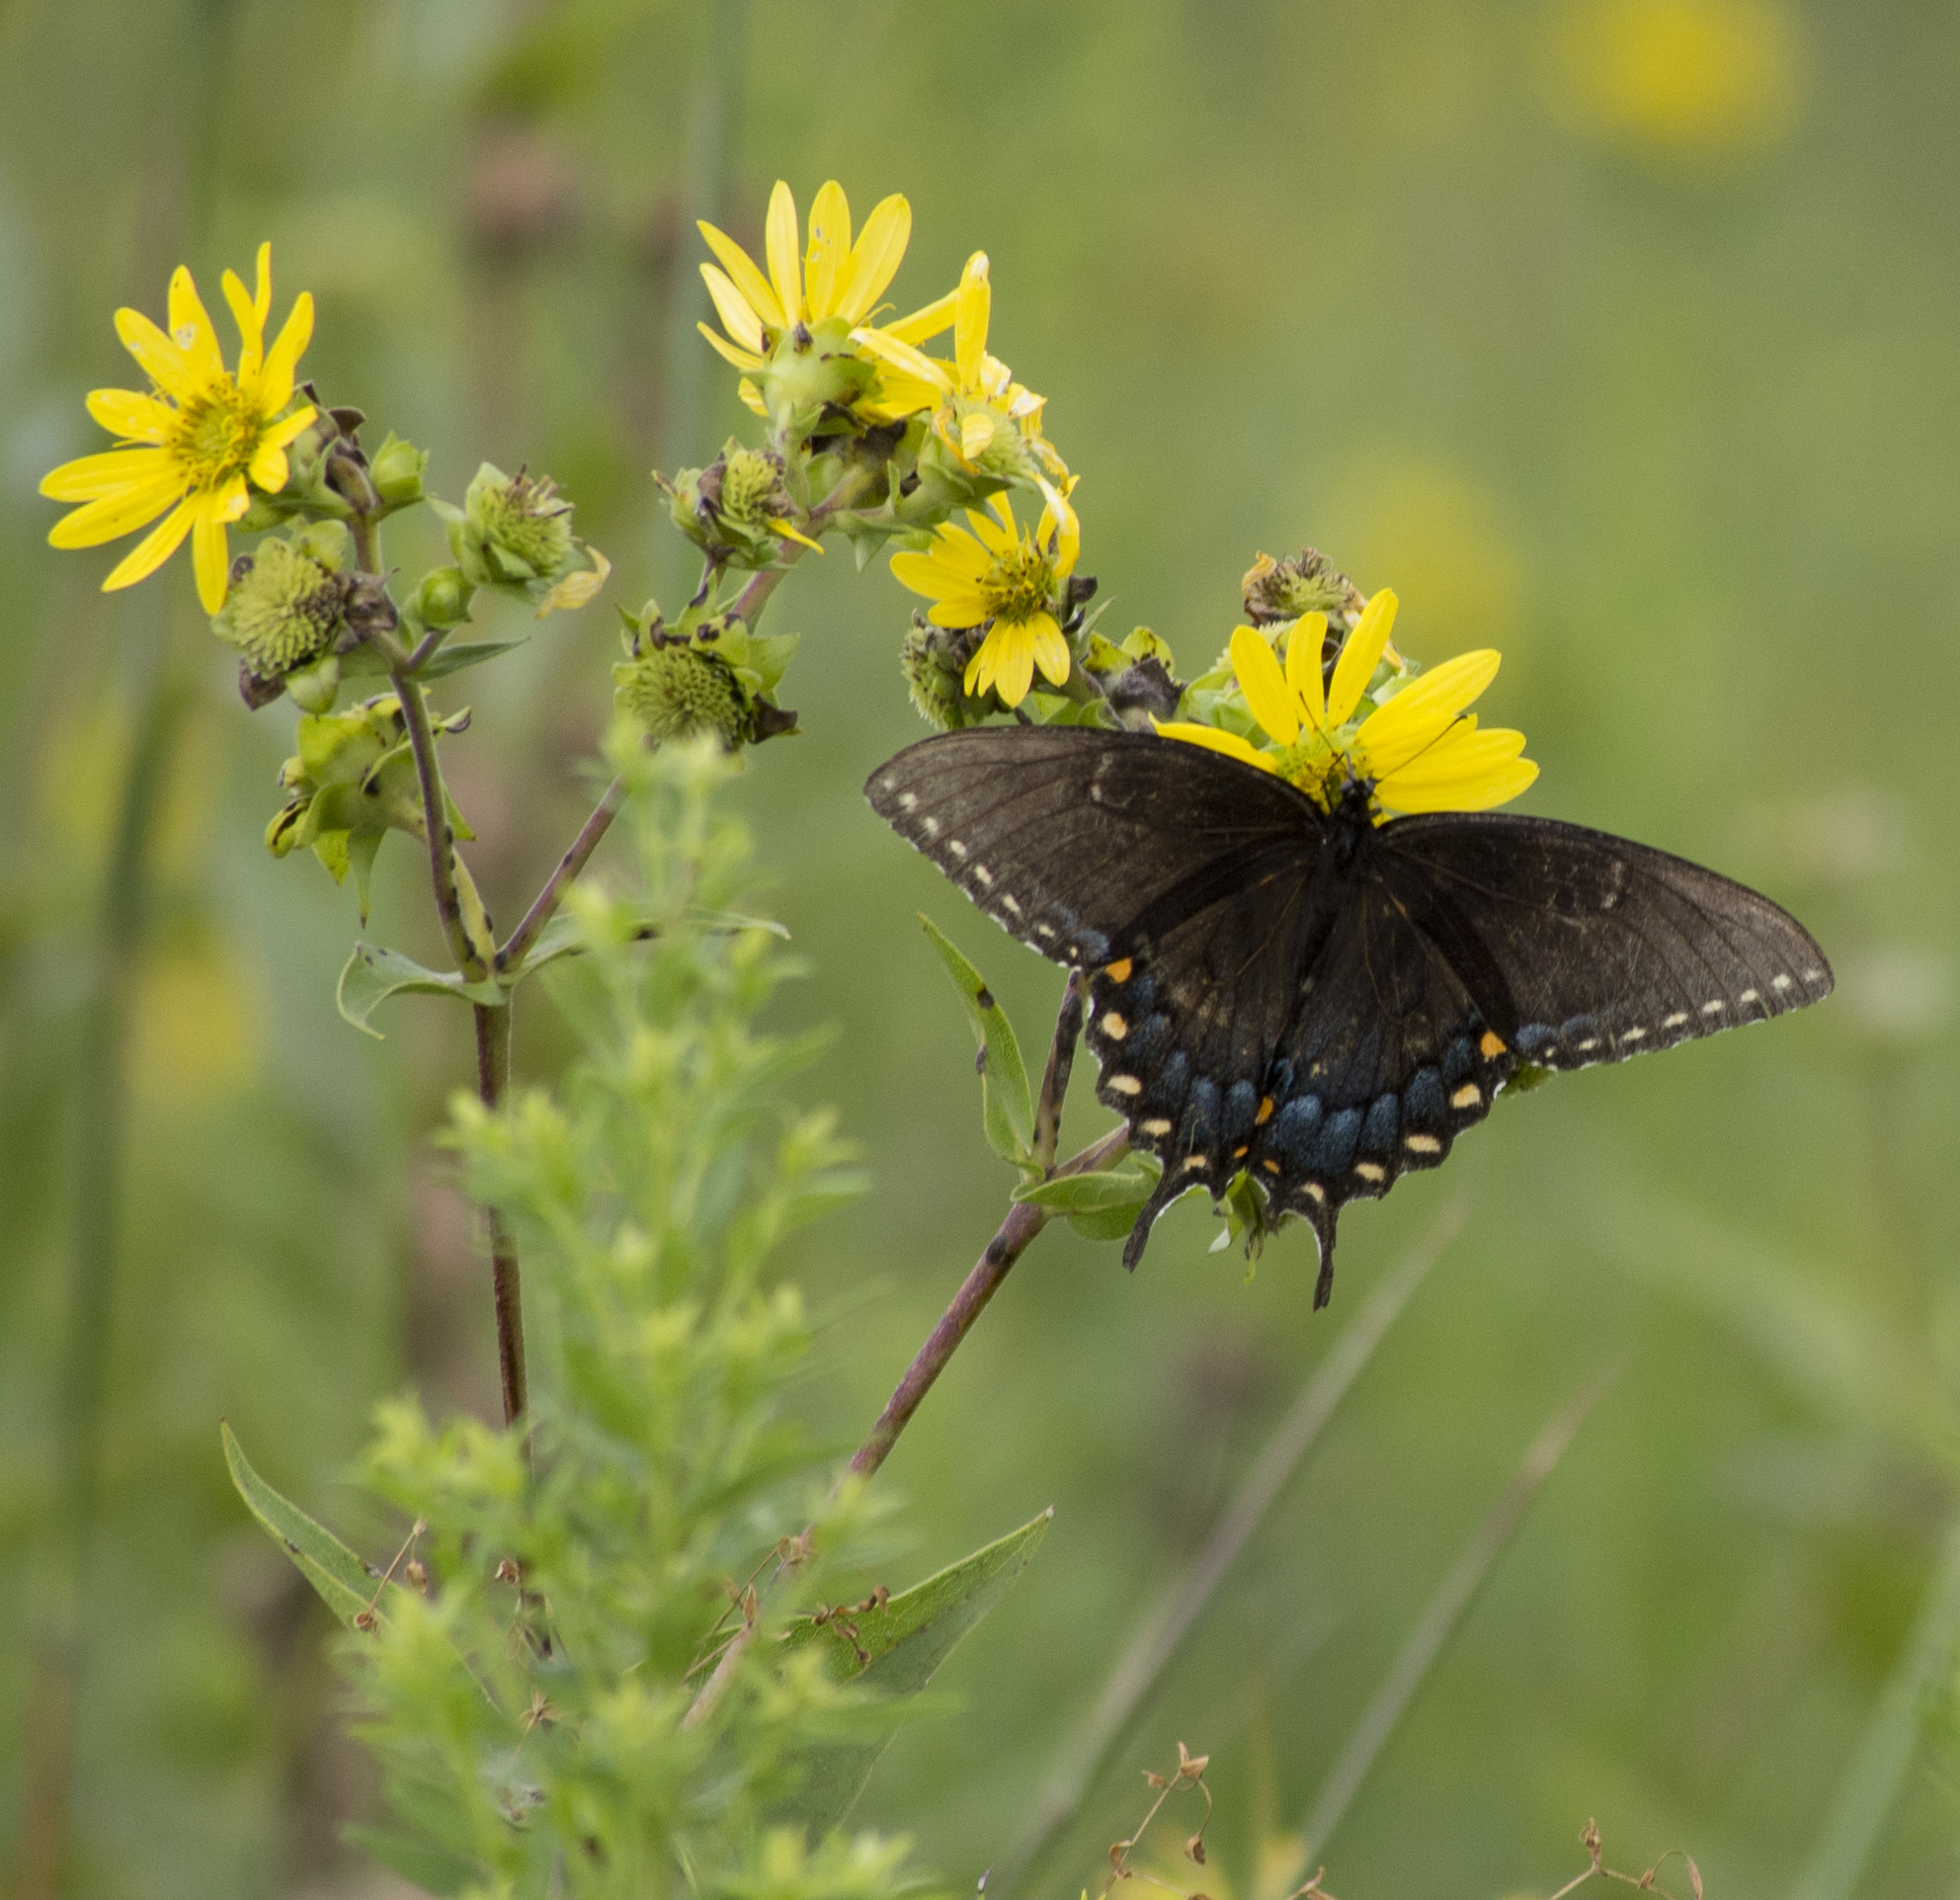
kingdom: Animalia
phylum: Arthropoda
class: Insecta
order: Lepidoptera
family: Papilionidae
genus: Papilio
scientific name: Papilio glaucus
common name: Tiger swallowtail
